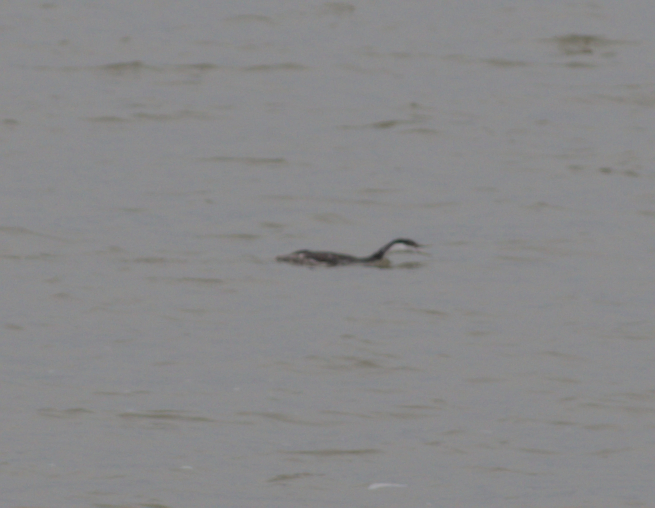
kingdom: Animalia
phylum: Chordata
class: Aves
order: Podicipediformes
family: Podicipedidae
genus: Aechmophorus
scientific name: Aechmophorus occidentalis
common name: Western grebe
